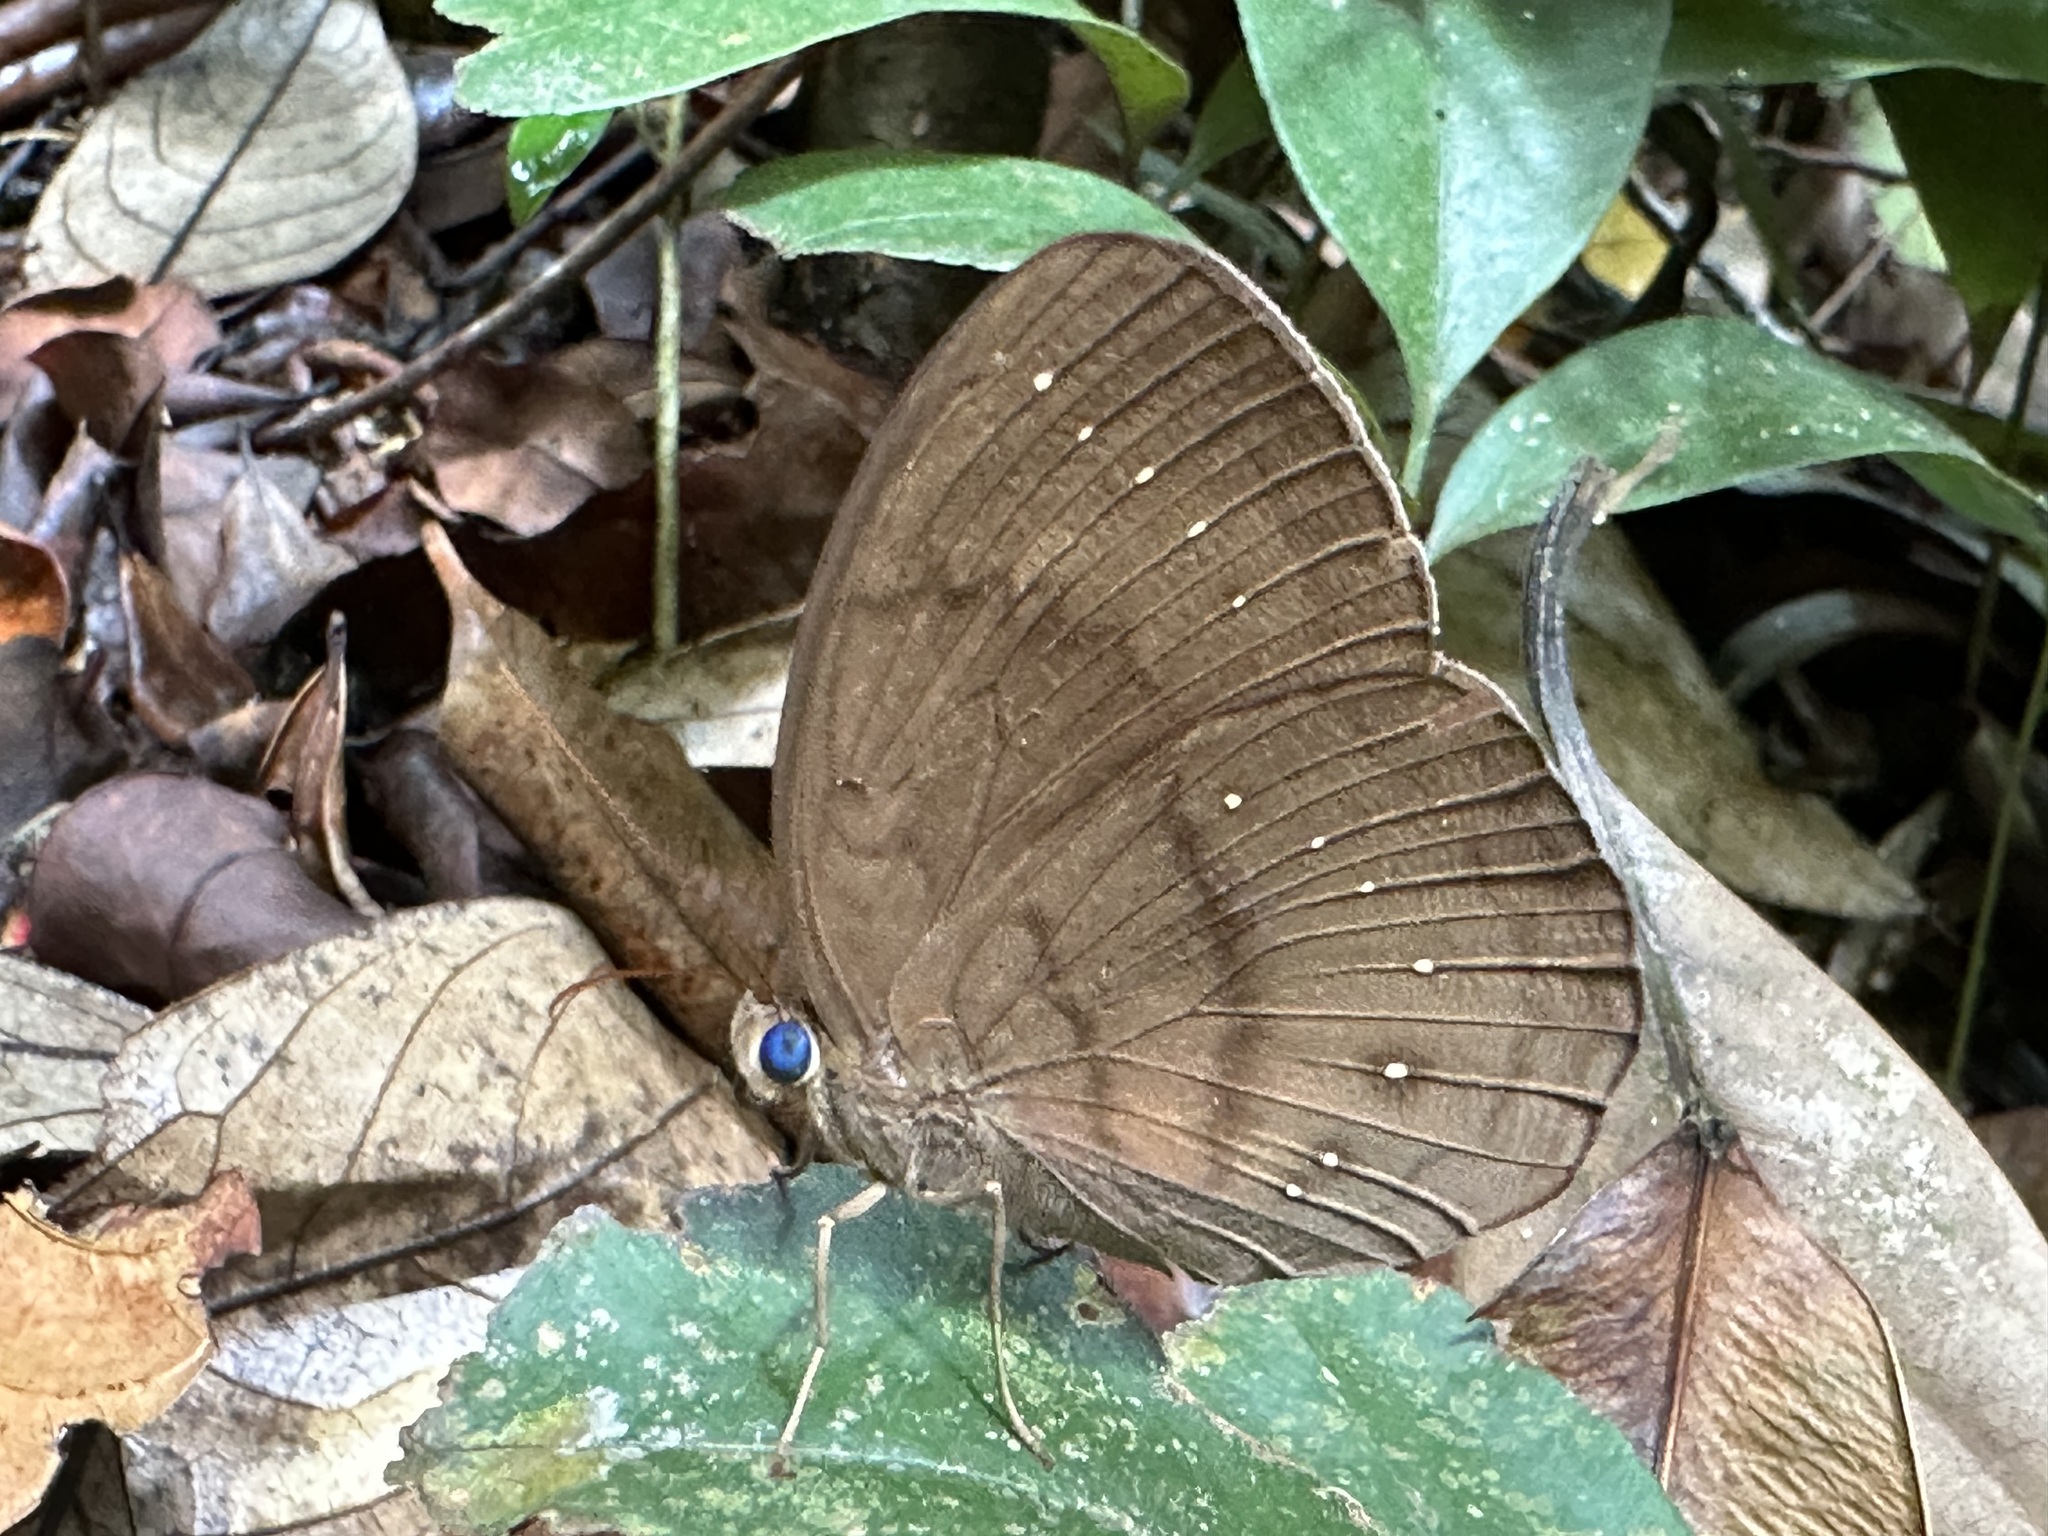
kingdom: Animalia
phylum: Arthropoda
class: Insecta
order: Lepidoptera
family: Nymphalidae
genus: Faunis
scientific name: Faunis canens
